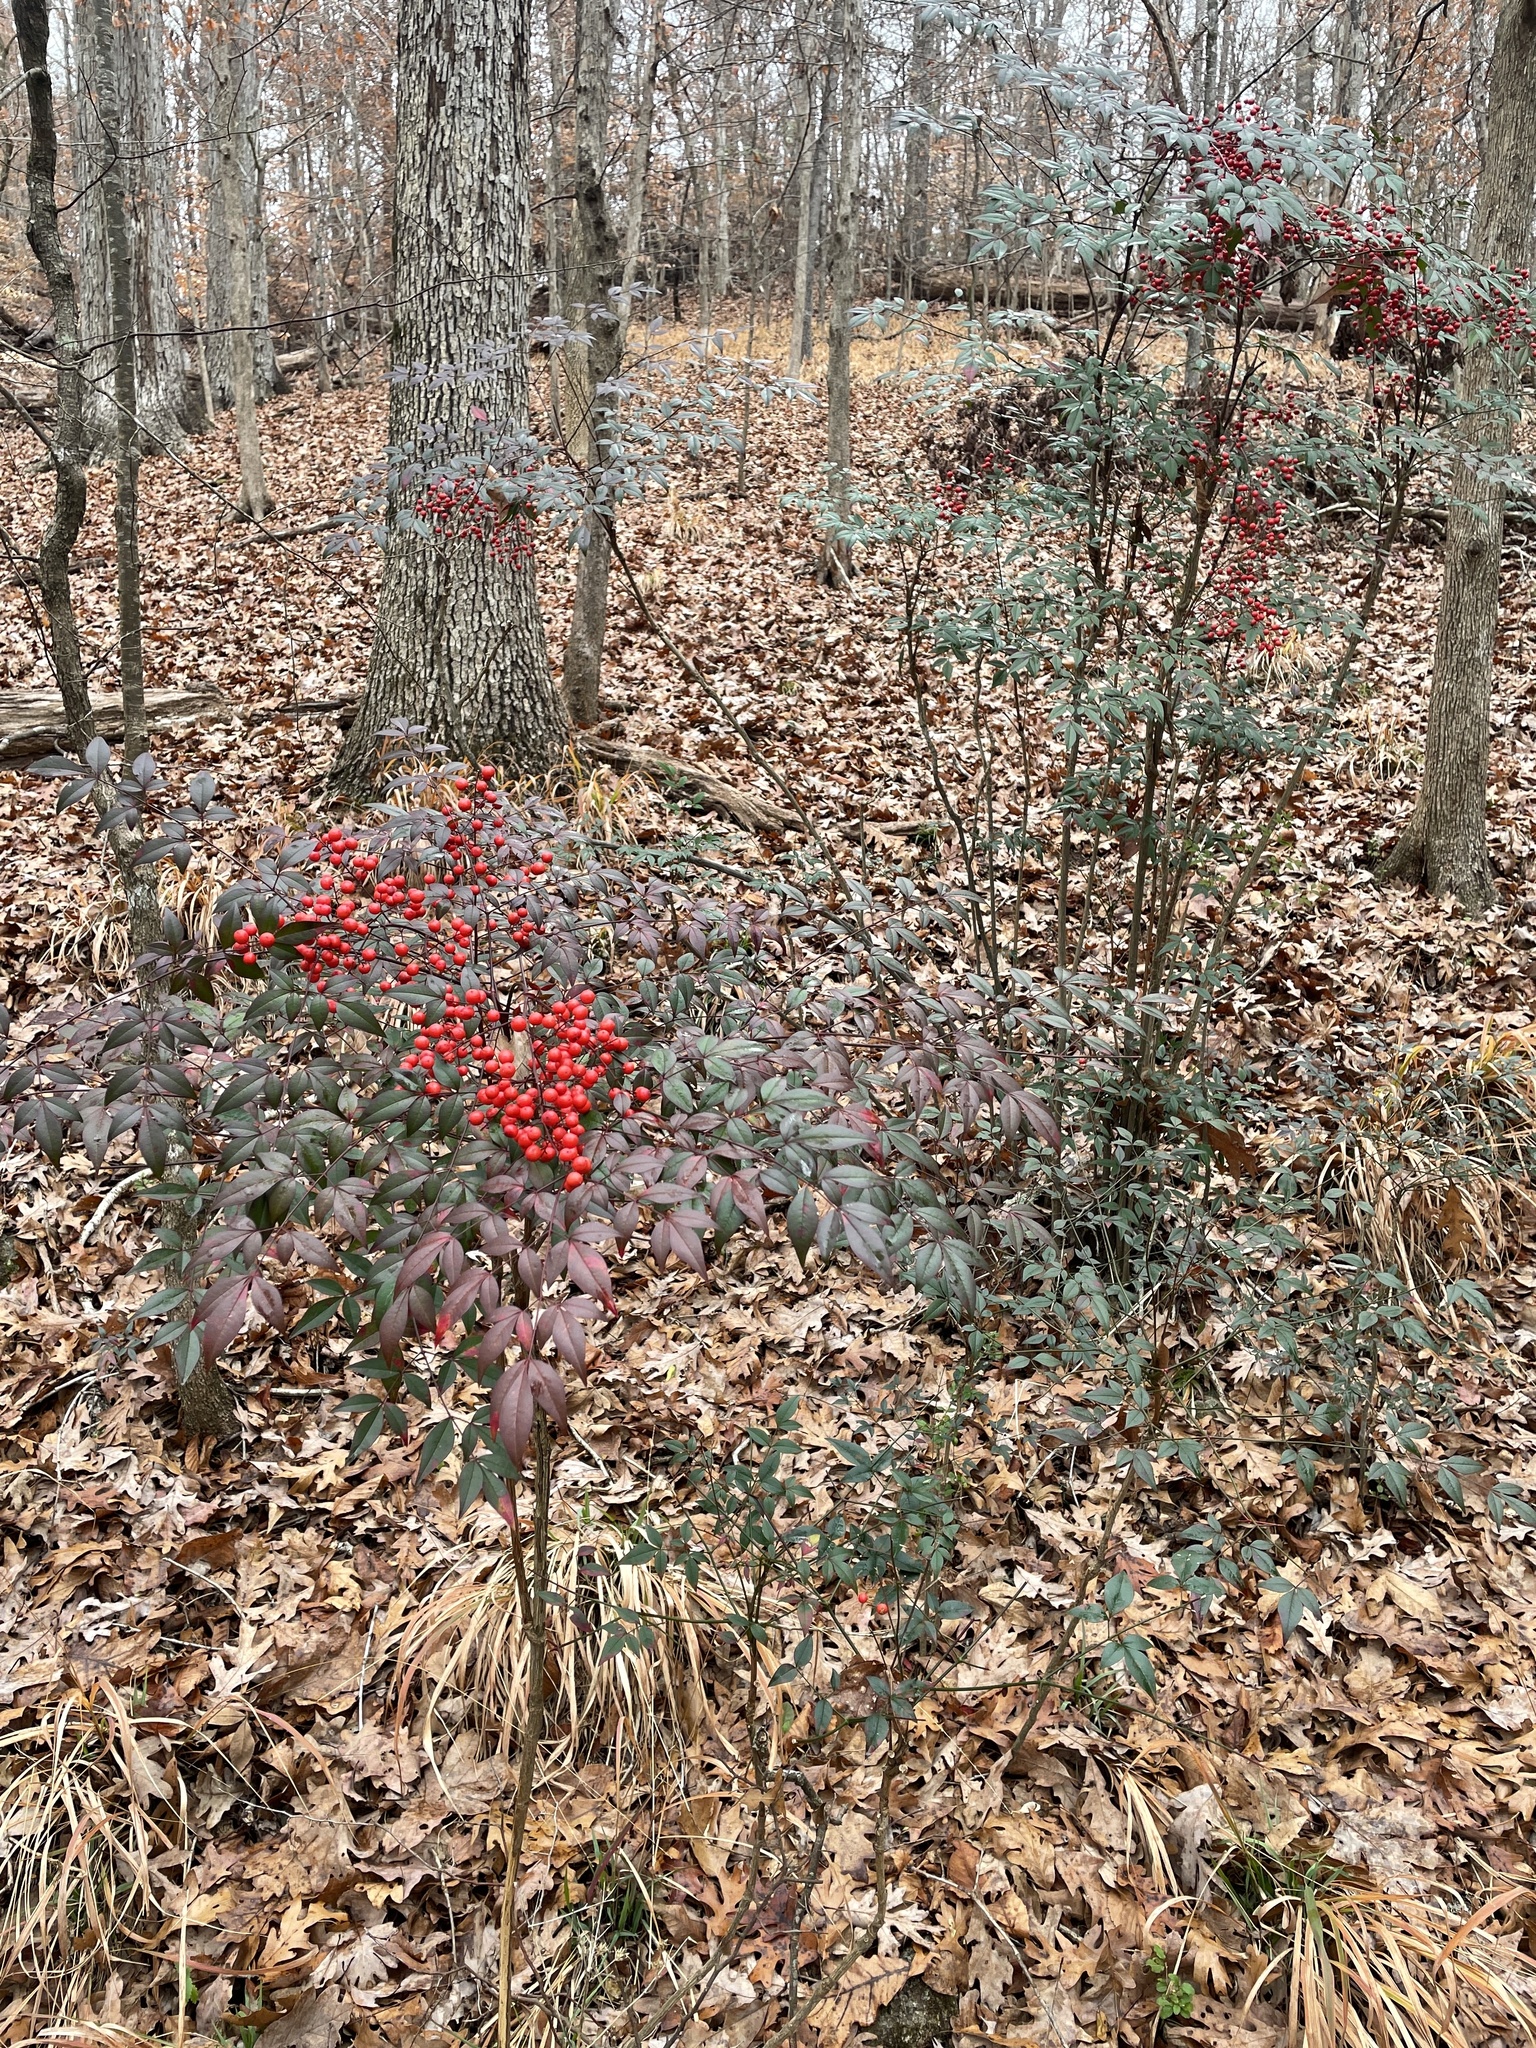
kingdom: Plantae
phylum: Tracheophyta
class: Magnoliopsida
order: Ranunculales
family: Berberidaceae
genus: Nandina
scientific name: Nandina domestica
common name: Sacred bamboo
